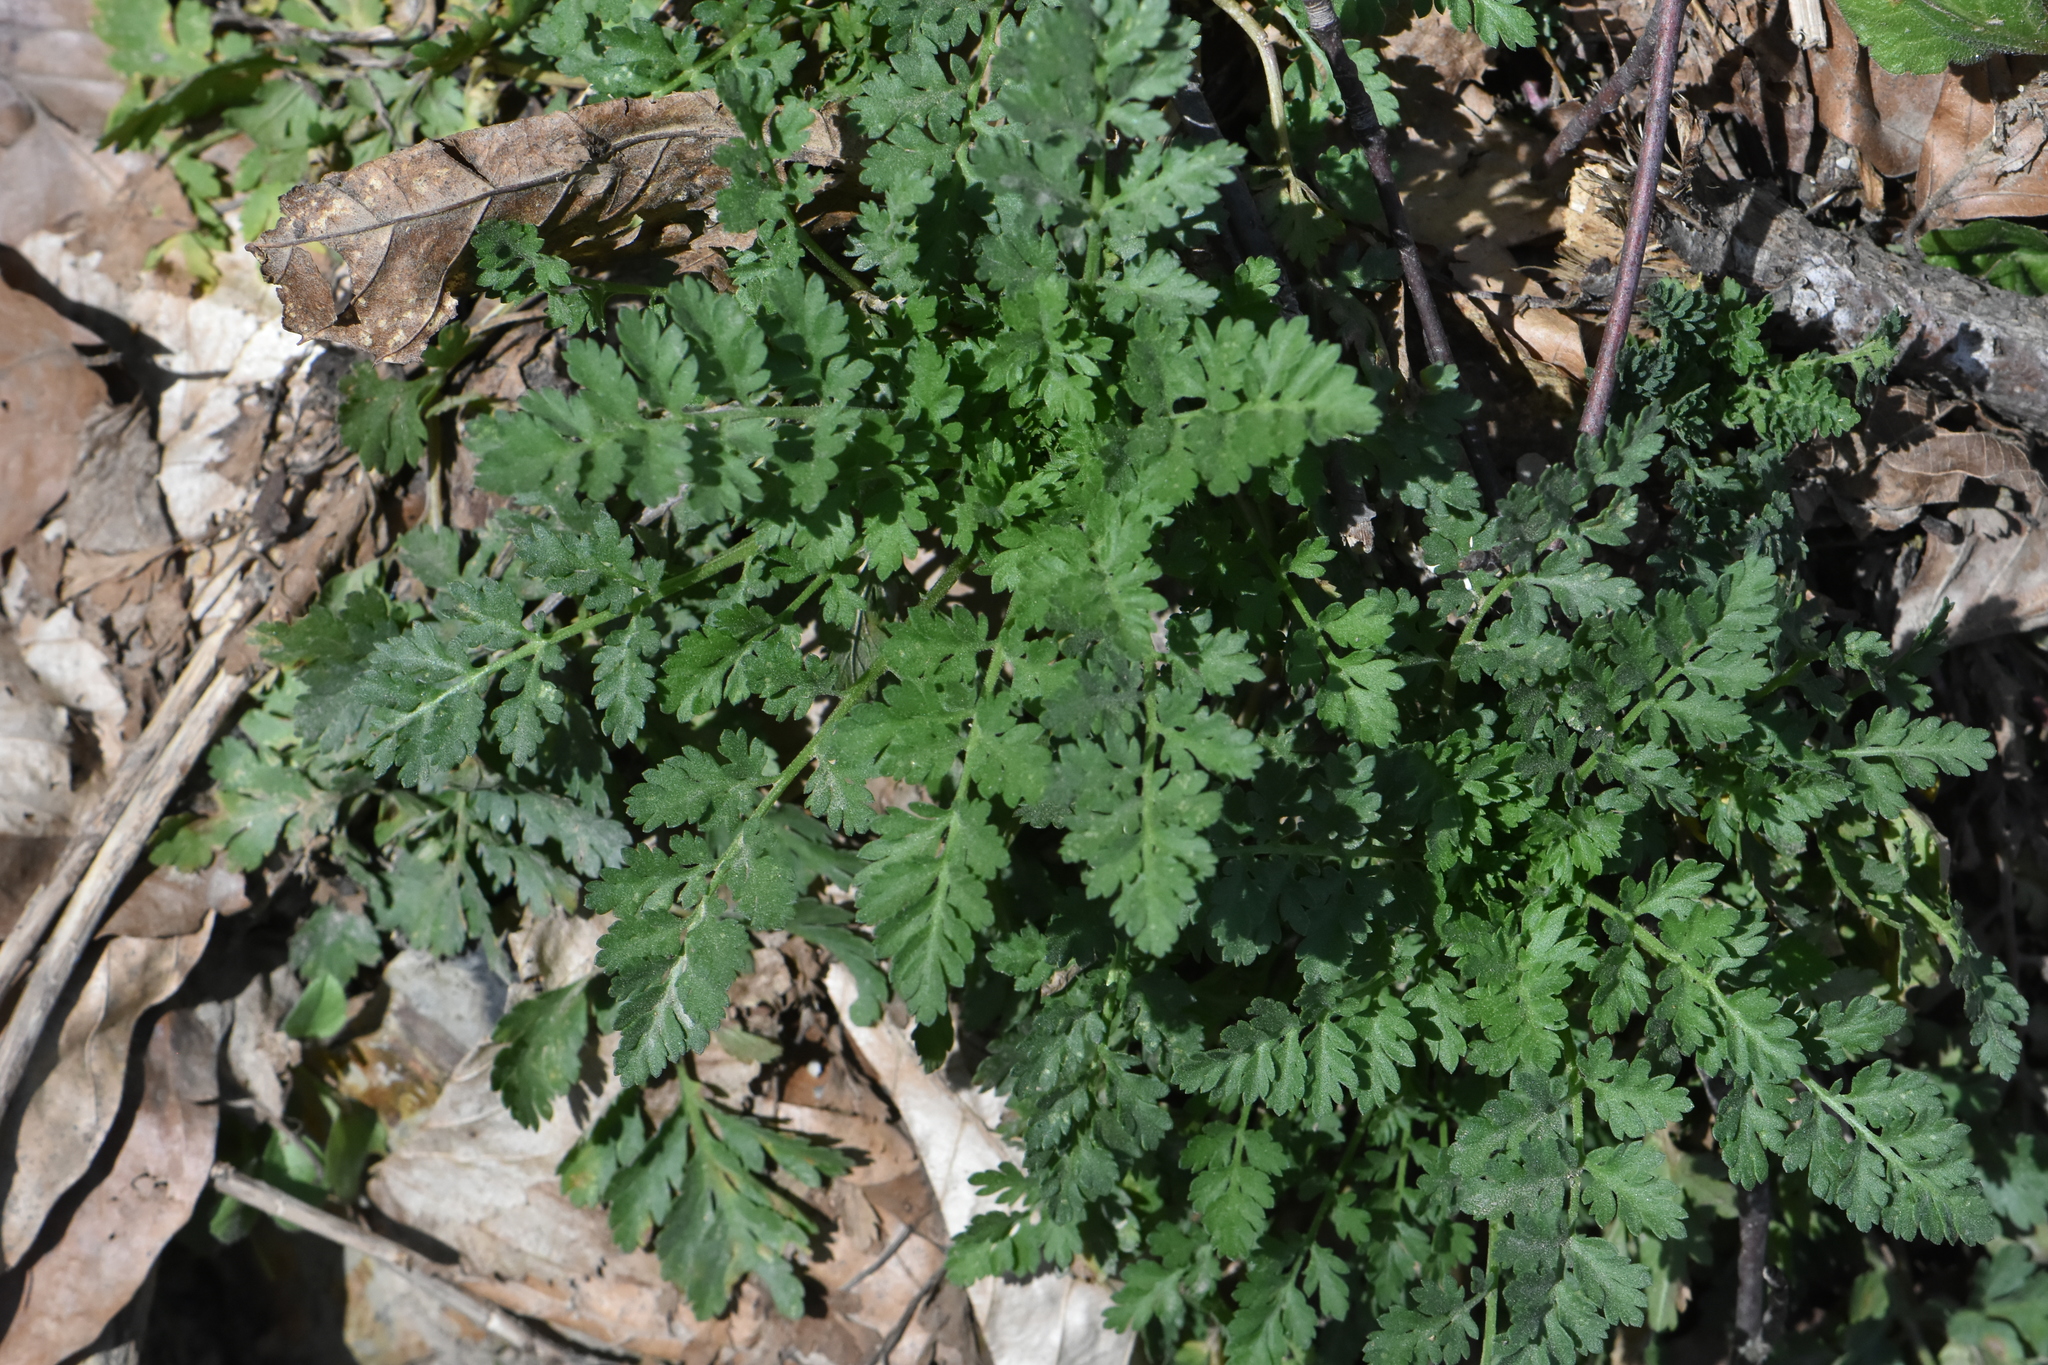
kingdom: Plantae
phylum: Tracheophyta
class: Magnoliopsida
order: Geraniales
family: Geraniaceae
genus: Erodium
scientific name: Erodium ciconium
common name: Common stork's bill
